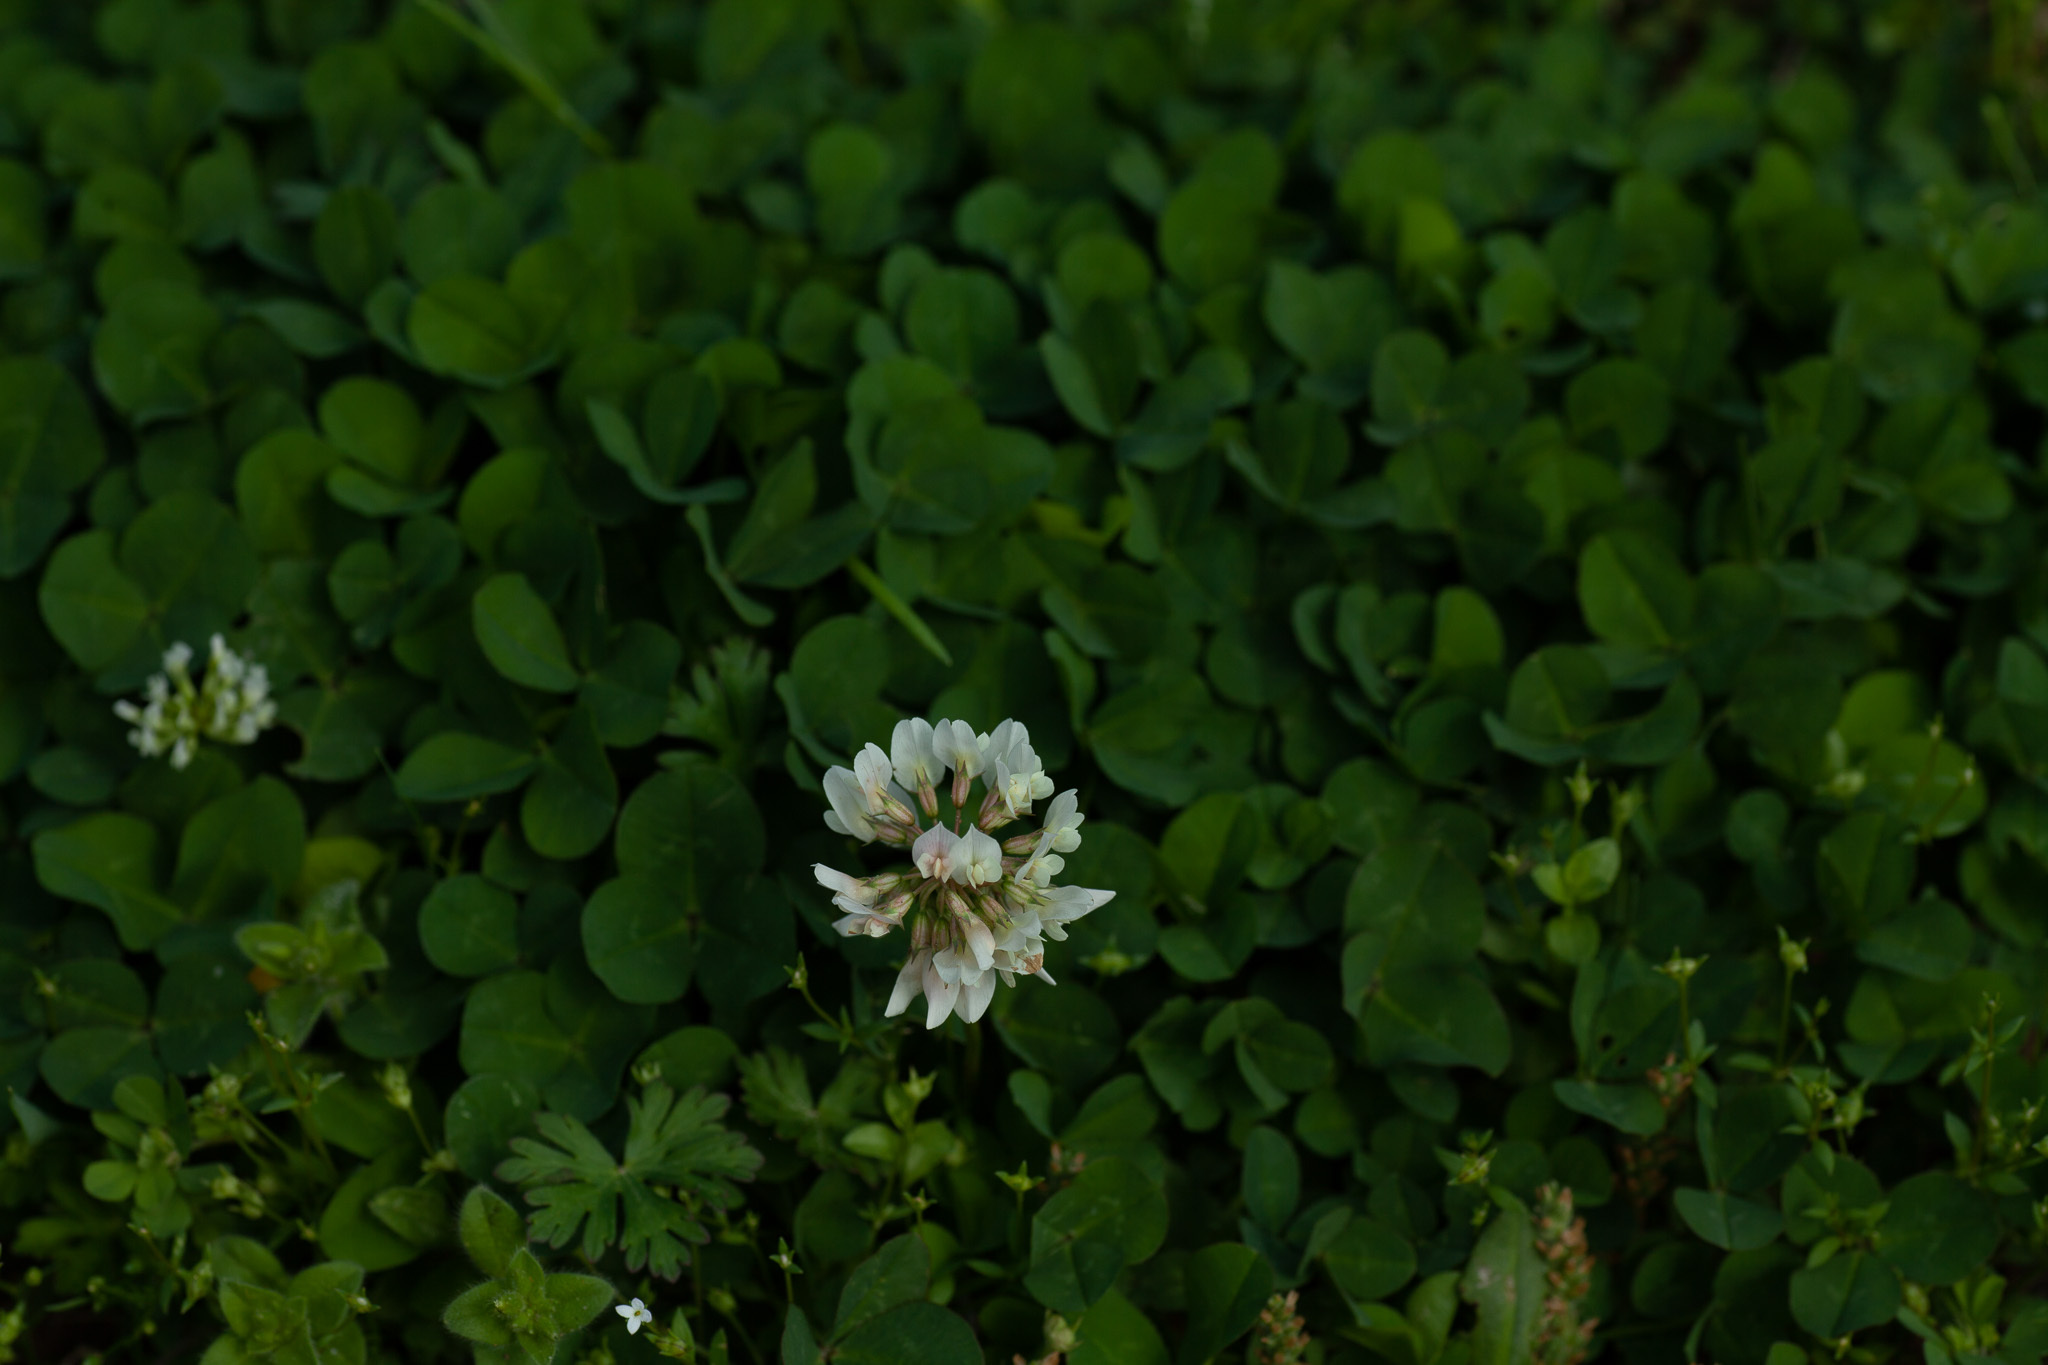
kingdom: Plantae
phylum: Tracheophyta
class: Magnoliopsida
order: Fabales
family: Fabaceae
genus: Trifolium
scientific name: Trifolium repens
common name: White clover
